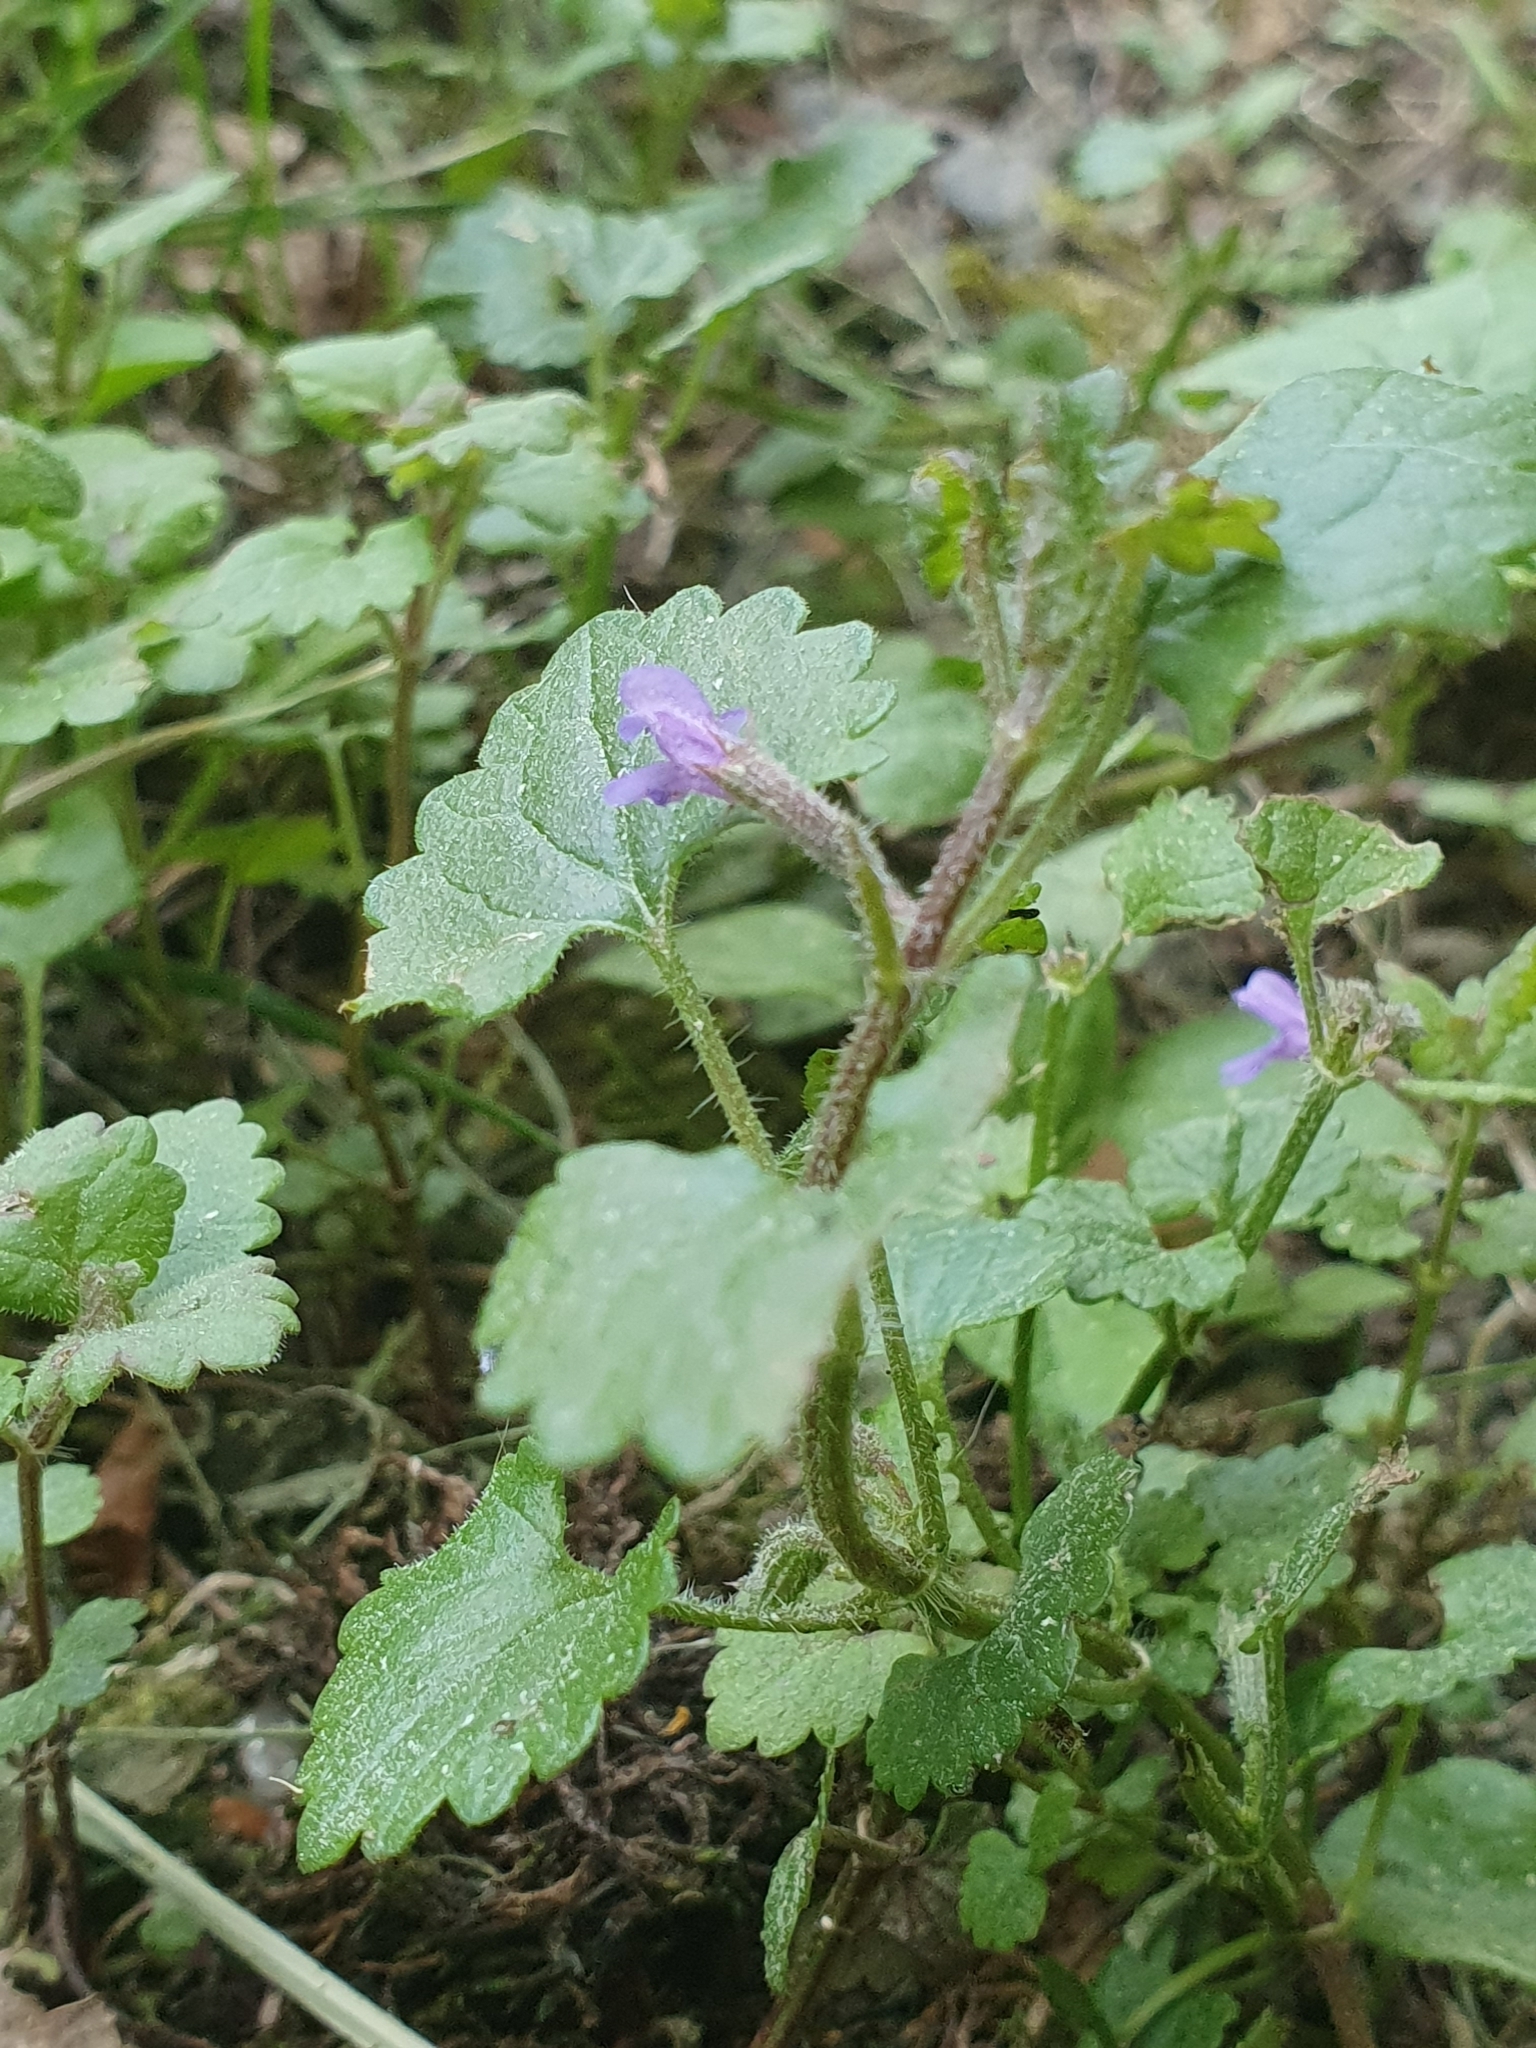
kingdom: Plantae
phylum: Tracheophyta
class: Magnoliopsida
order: Lamiales
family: Lamiaceae
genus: Glechoma
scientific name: Glechoma hederacea
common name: Ground ivy
